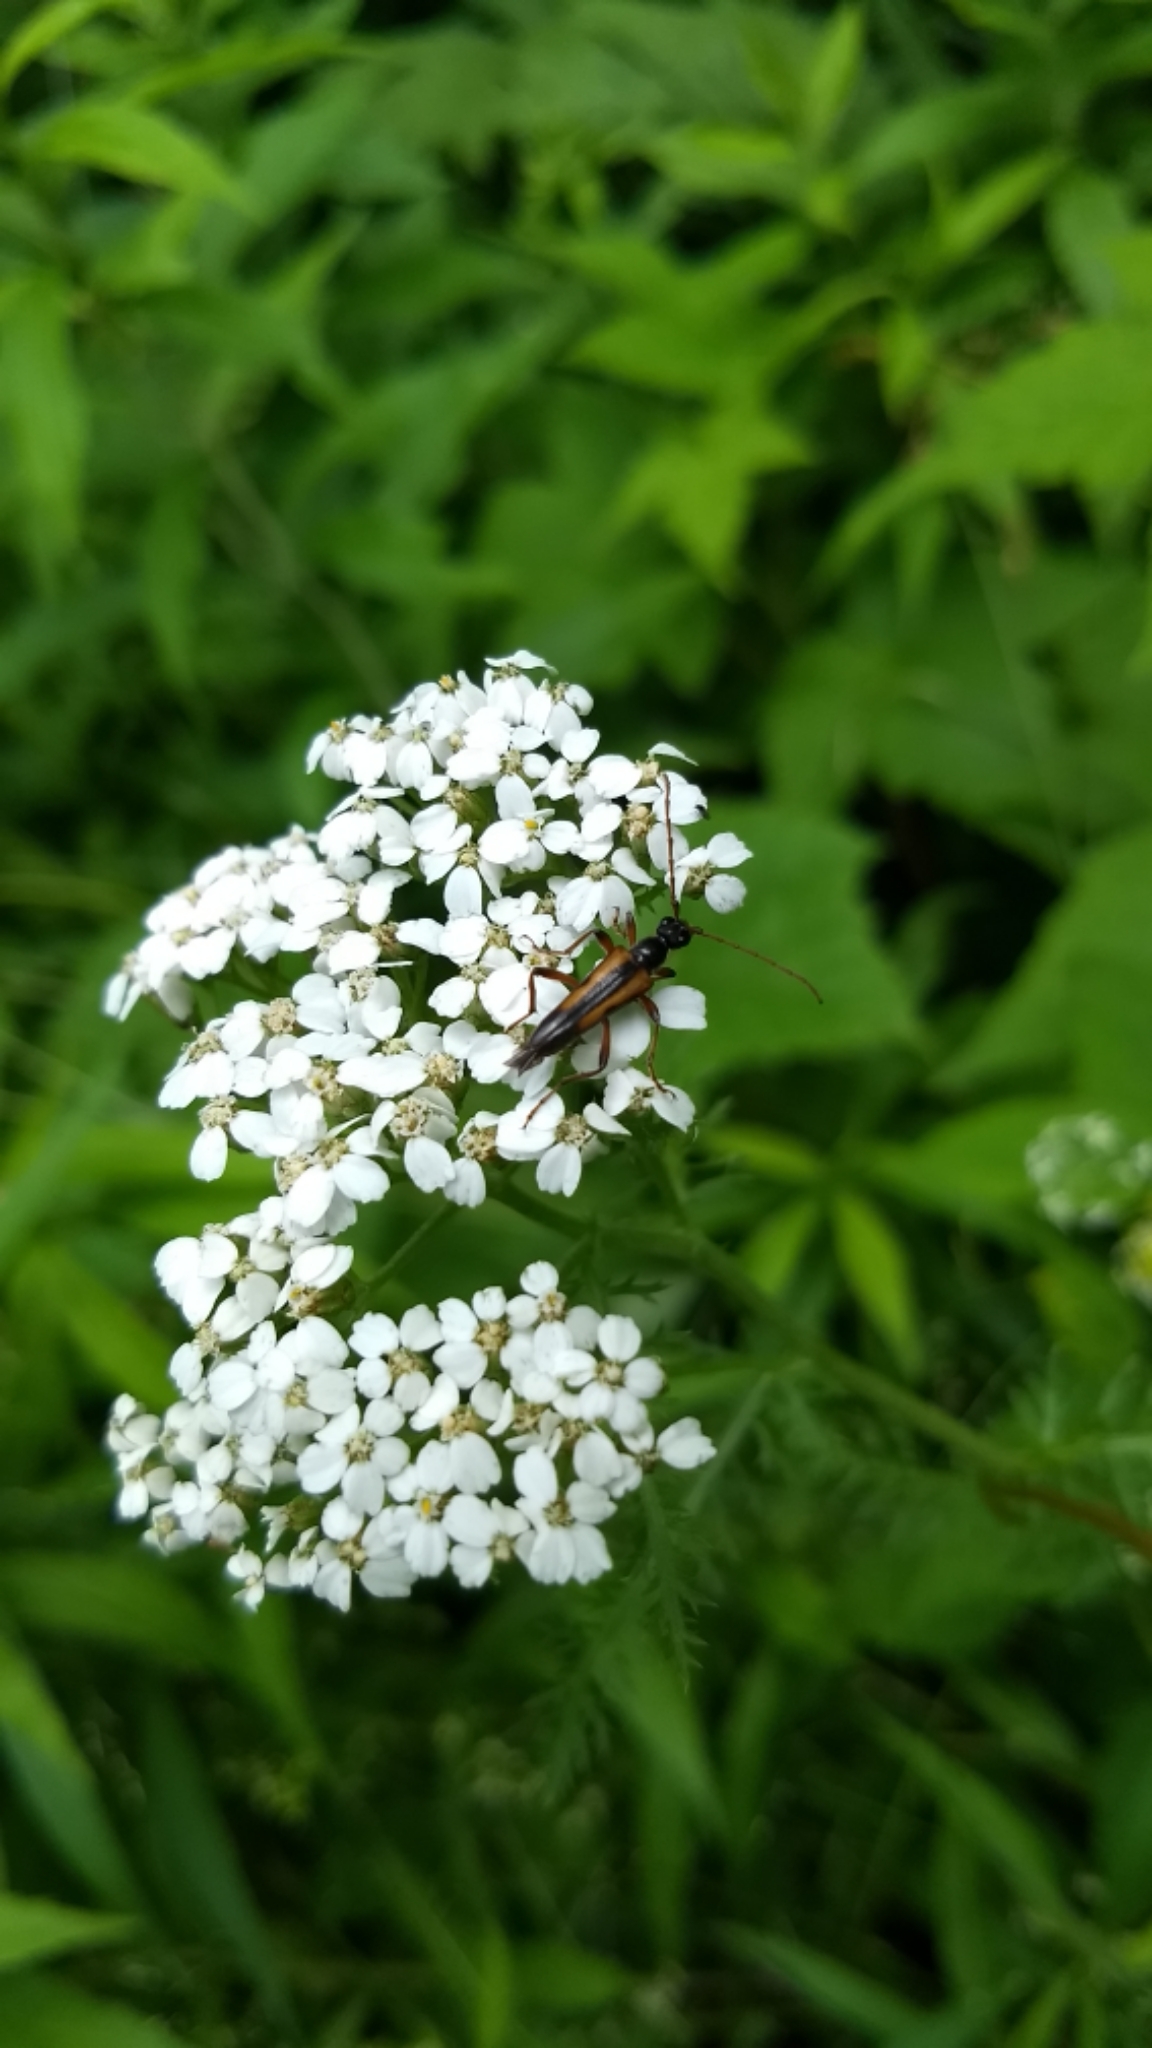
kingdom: Animalia
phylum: Arthropoda
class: Insecta
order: Coleoptera
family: Cerambycidae
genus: Strangalepta
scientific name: Strangalepta abbreviata
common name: Strangalepta flower longhorn beetle
